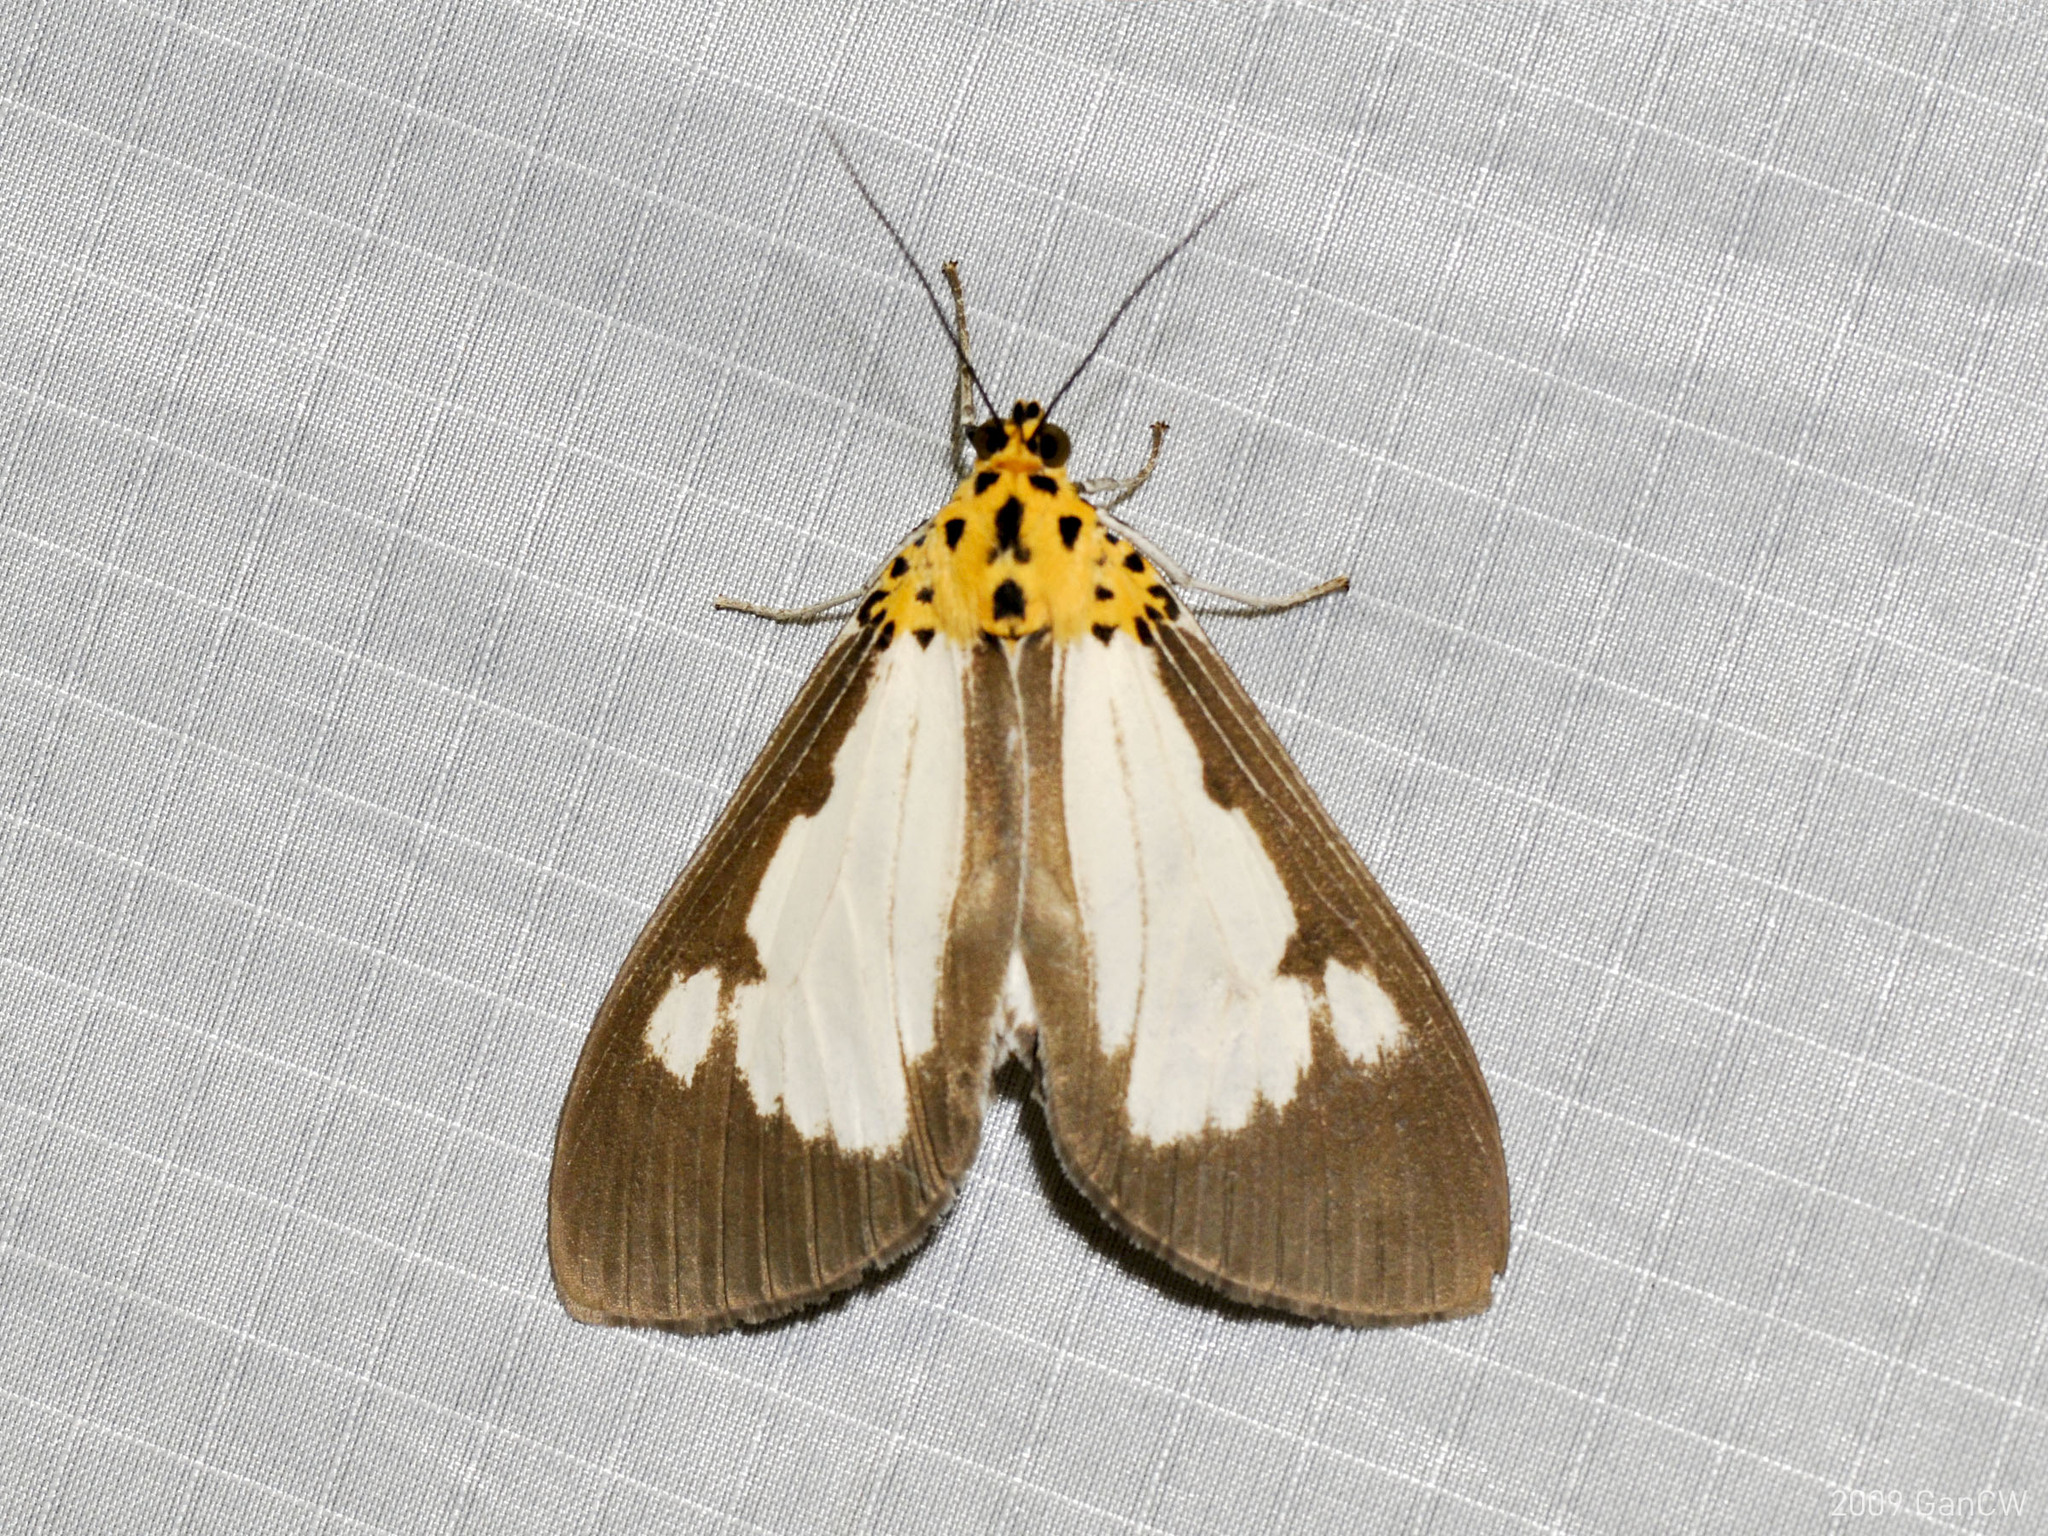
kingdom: Animalia
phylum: Arthropoda
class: Insecta
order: Lepidoptera
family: Erebidae
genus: Asota
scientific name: Asota plana
